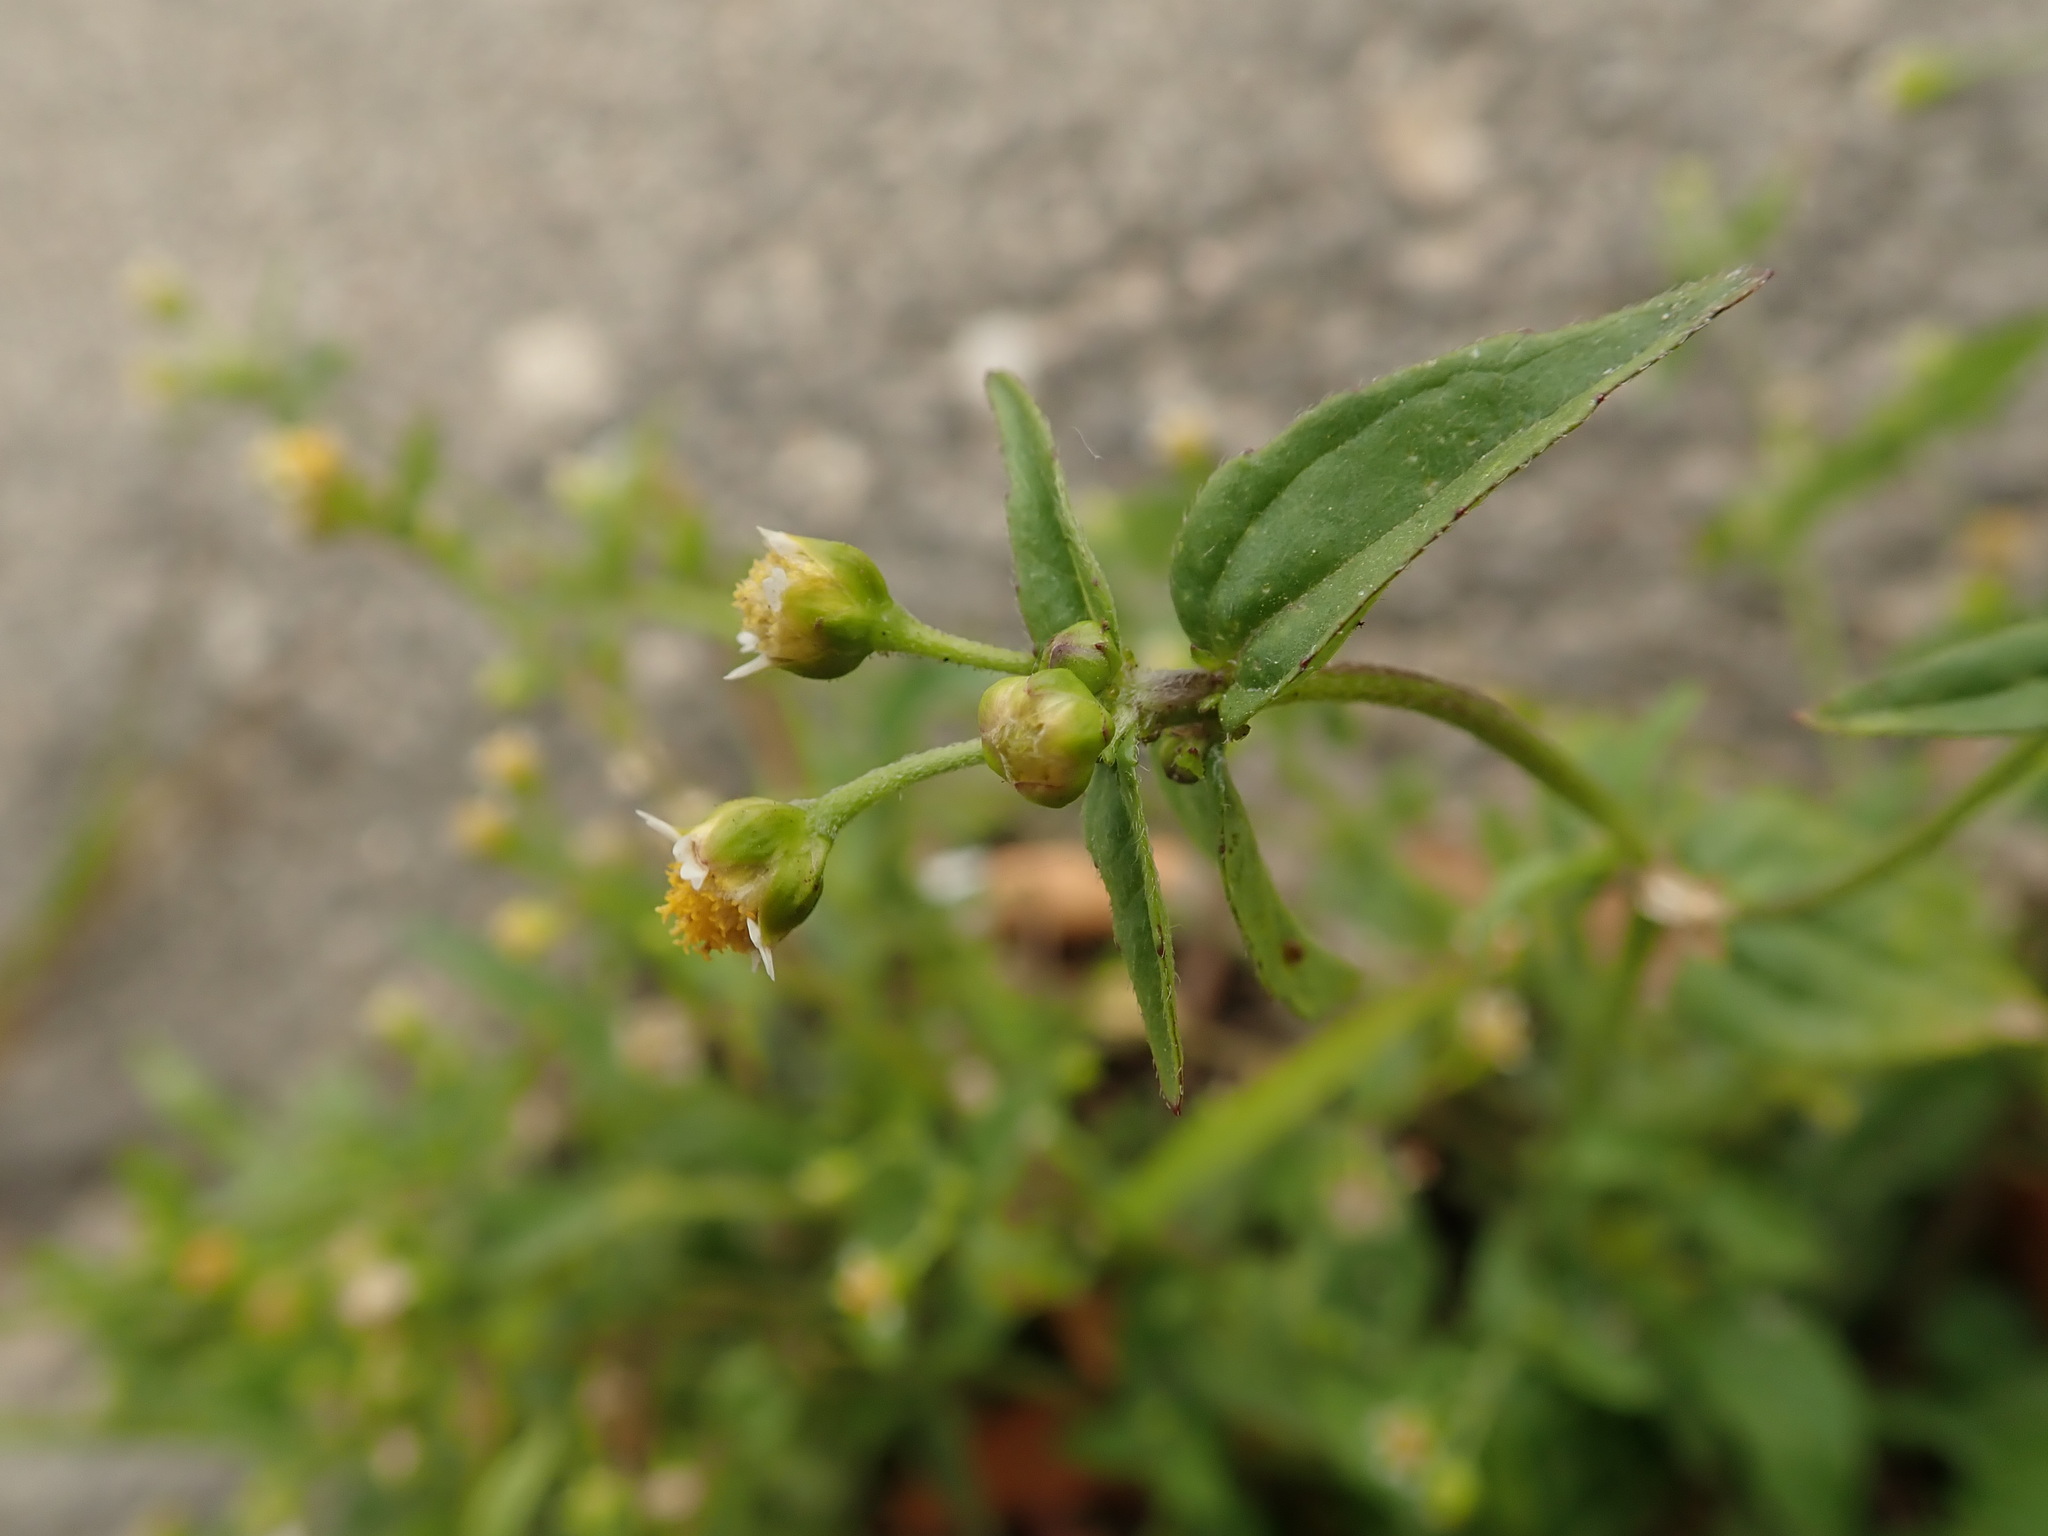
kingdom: Plantae
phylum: Tracheophyta
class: Magnoliopsida
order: Asterales
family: Asteraceae
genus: Galinsoga
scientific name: Galinsoga parviflora
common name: Gallant soldier
